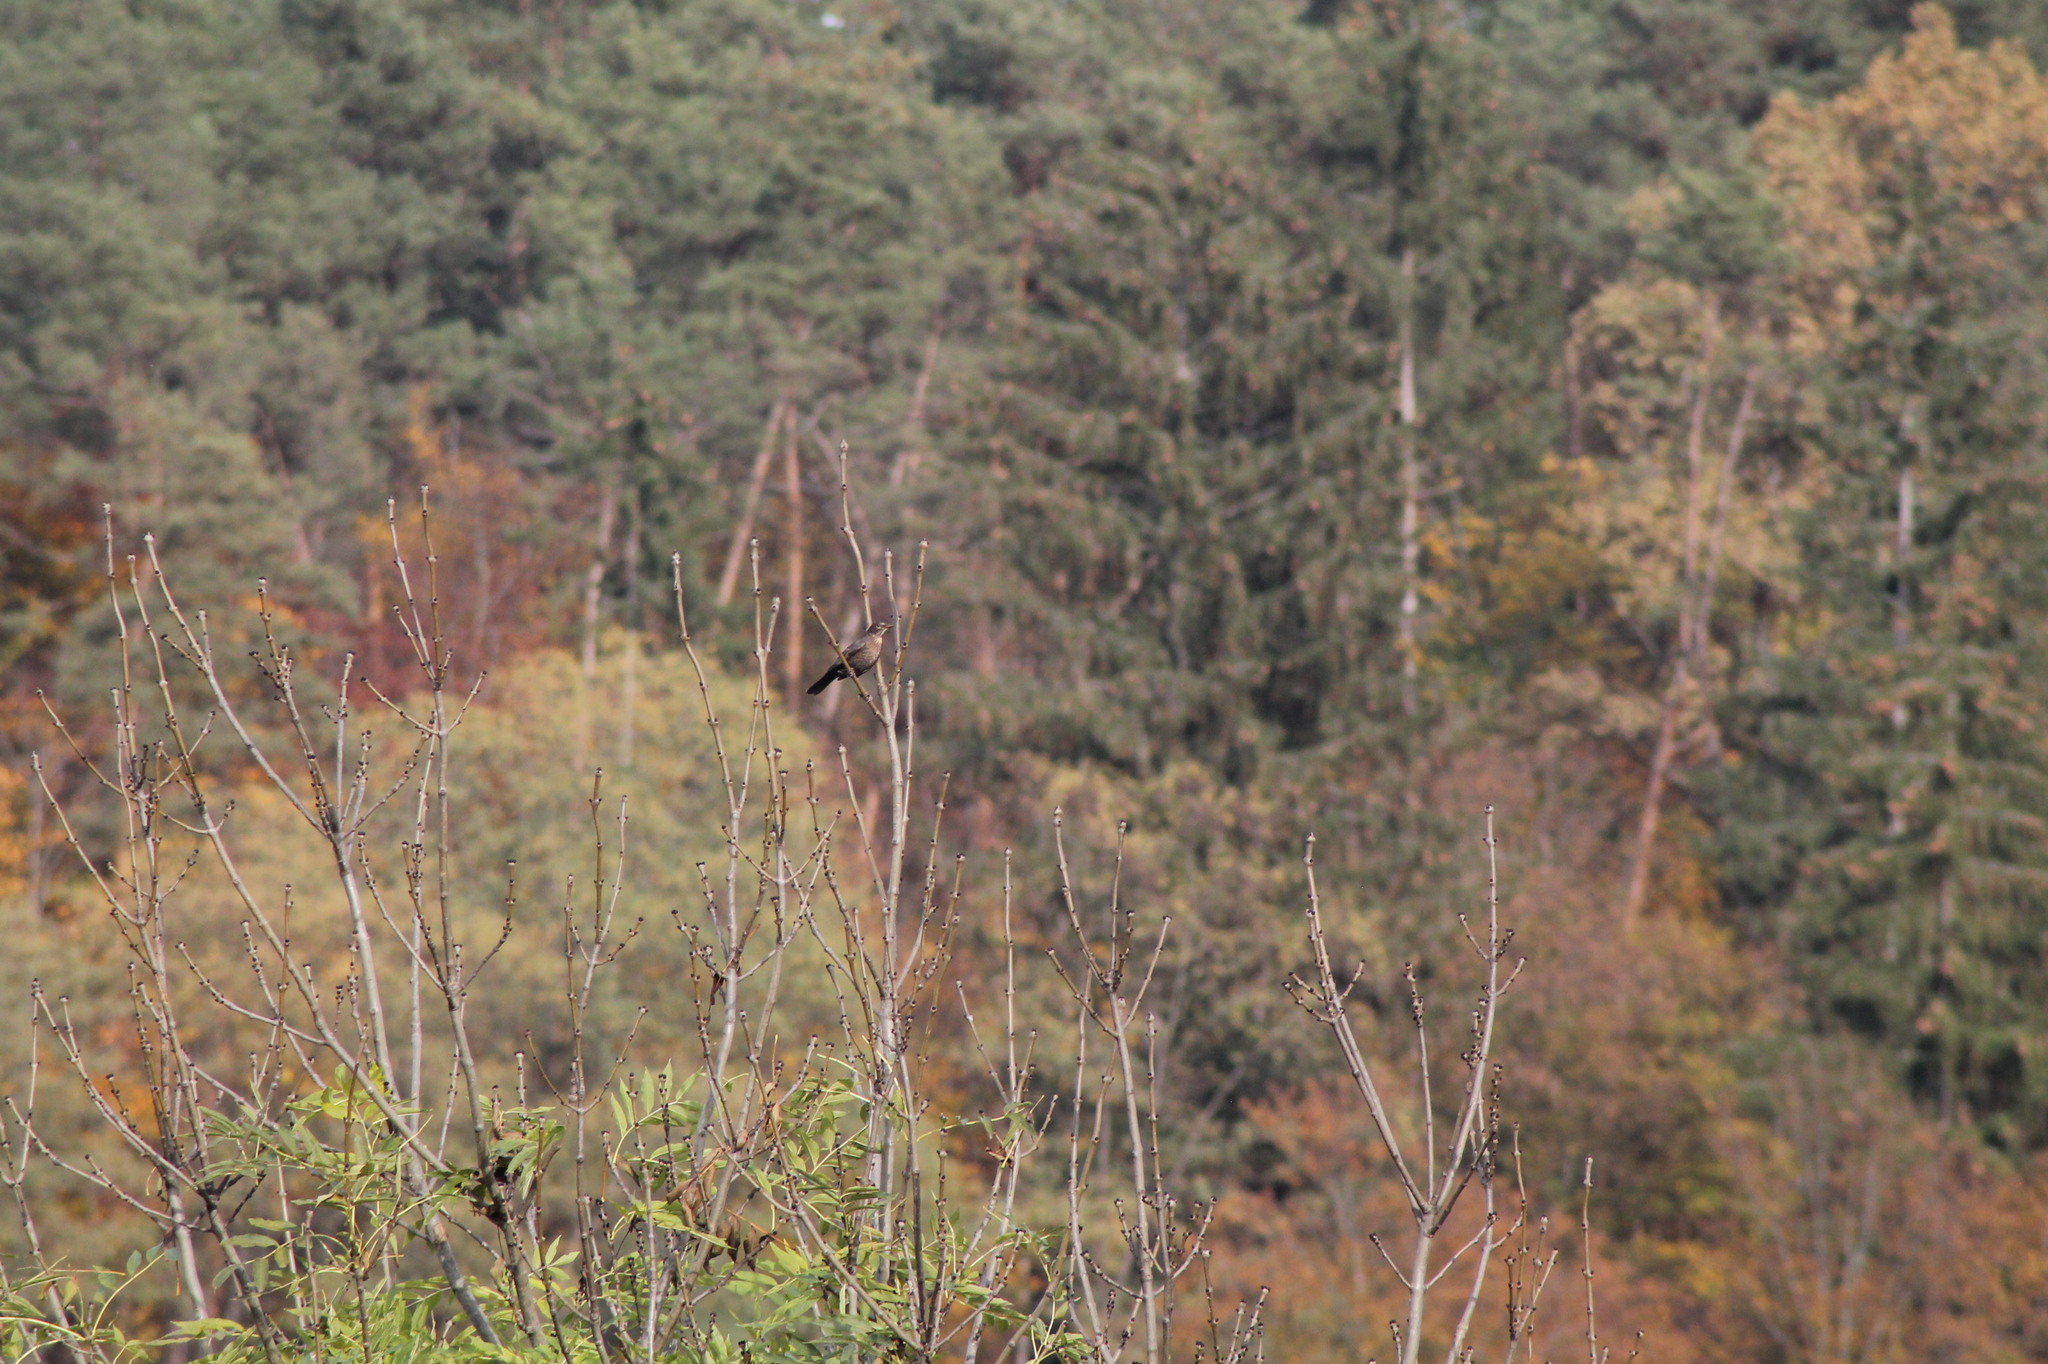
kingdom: Animalia
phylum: Chordata
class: Aves
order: Passeriformes
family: Turdidae
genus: Turdus
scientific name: Turdus merula
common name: Common blackbird
